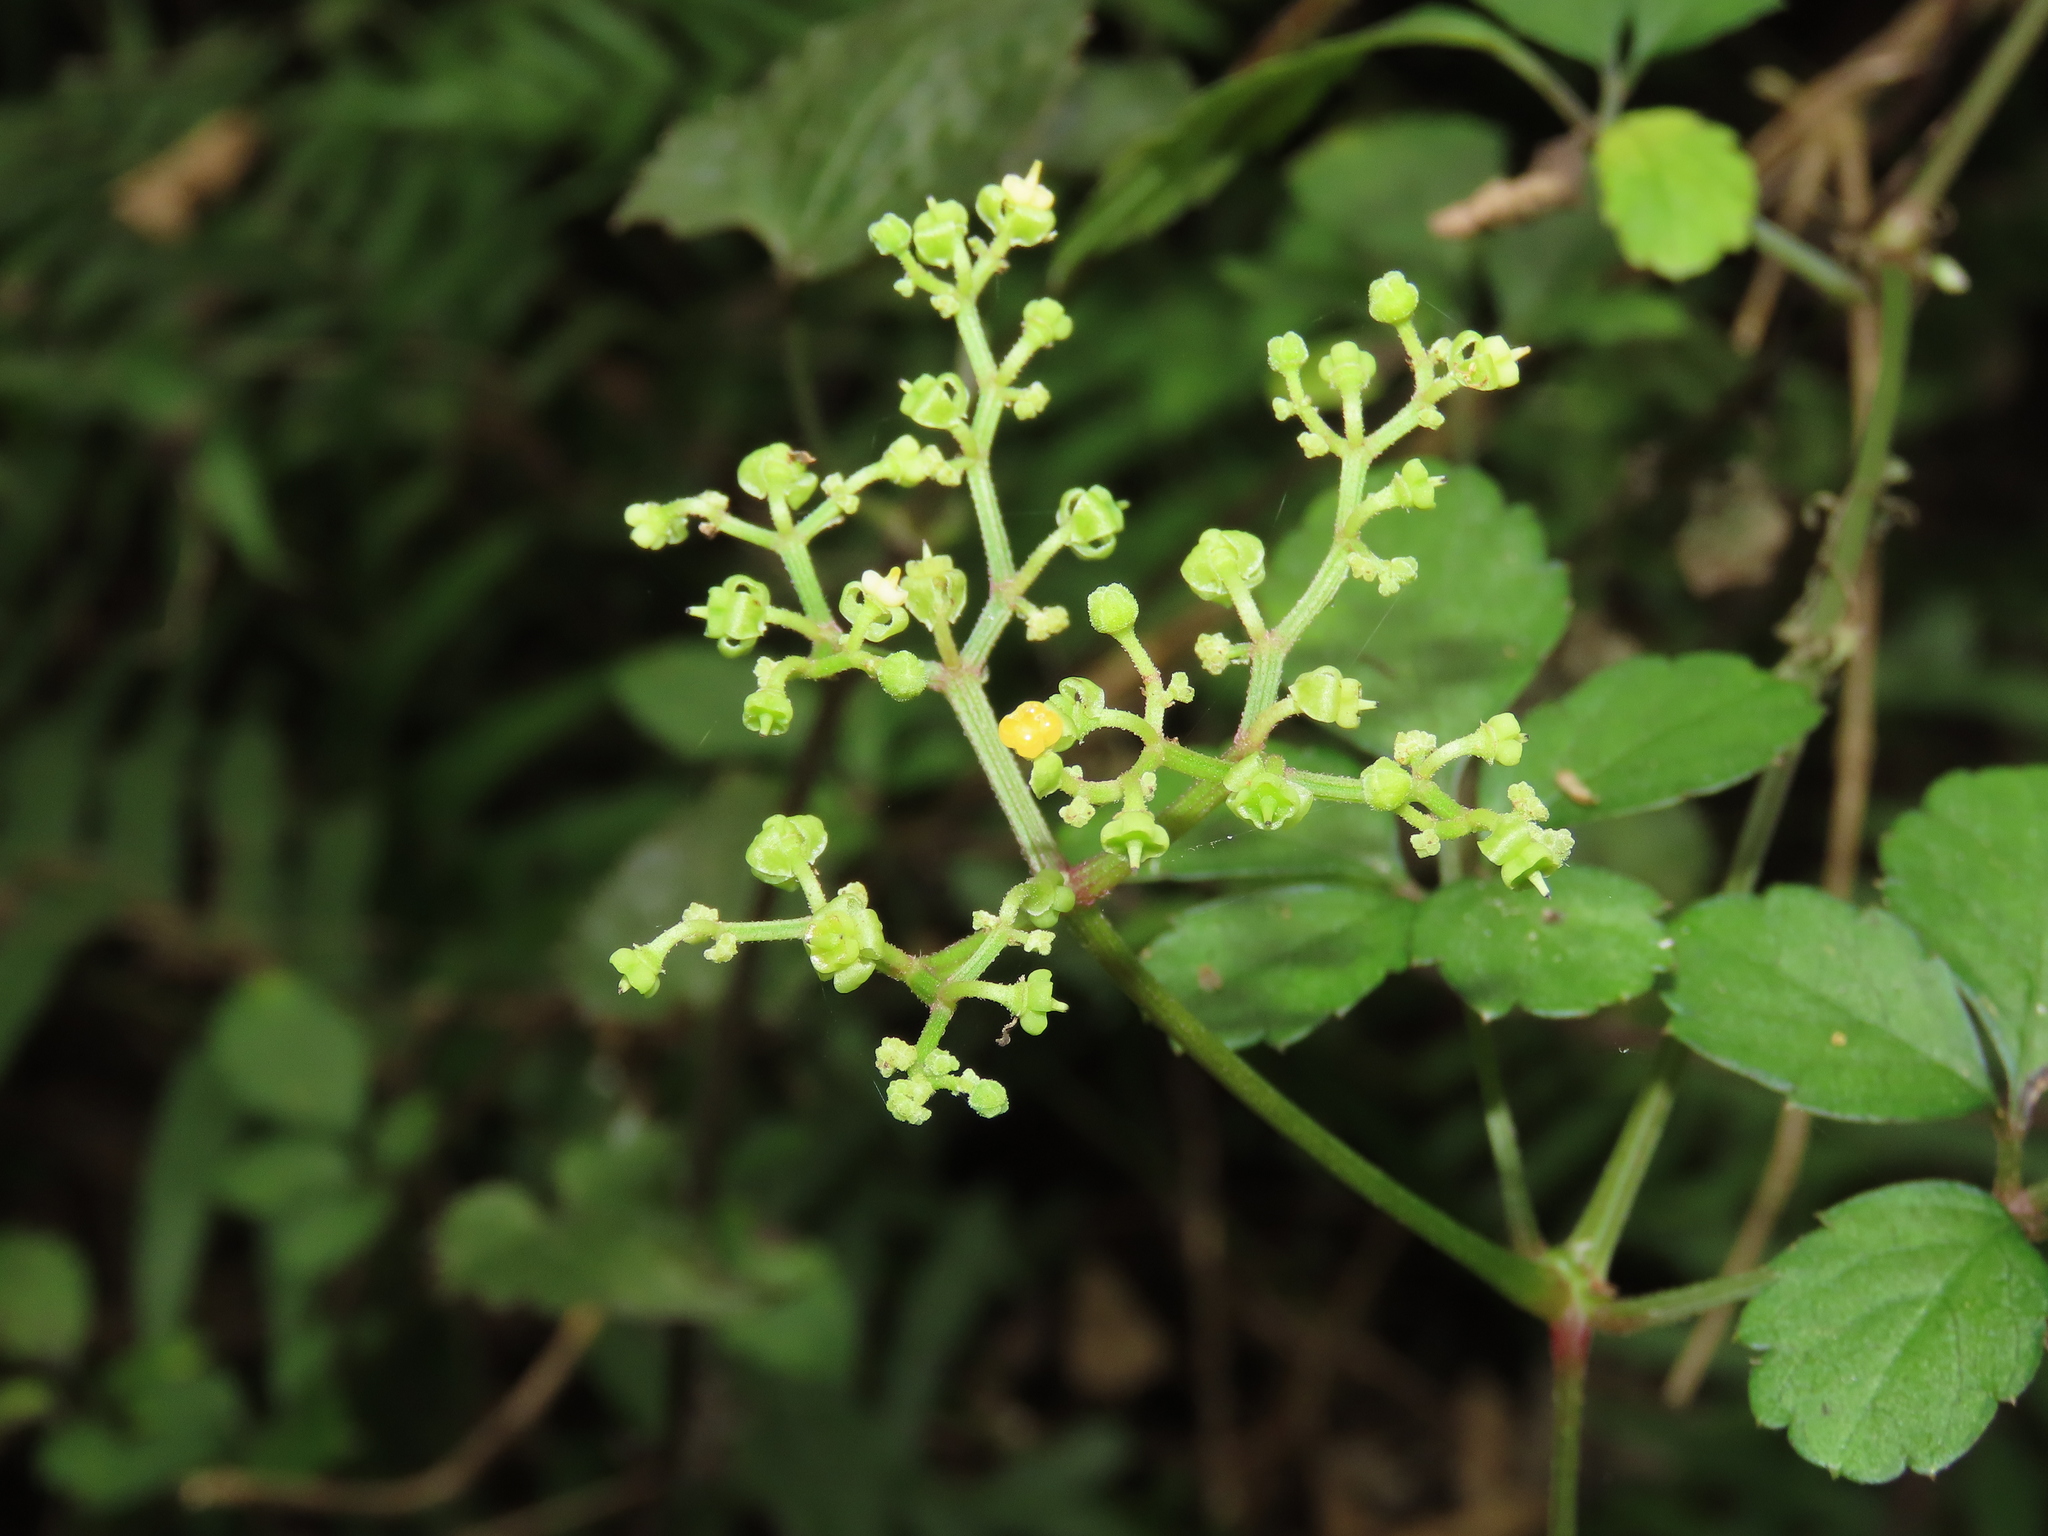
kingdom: Plantae
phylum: Tracheophyta
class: Magnoliopsida
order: Vitales
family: Vitaceae
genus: Causonis
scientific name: Causonis japonica
